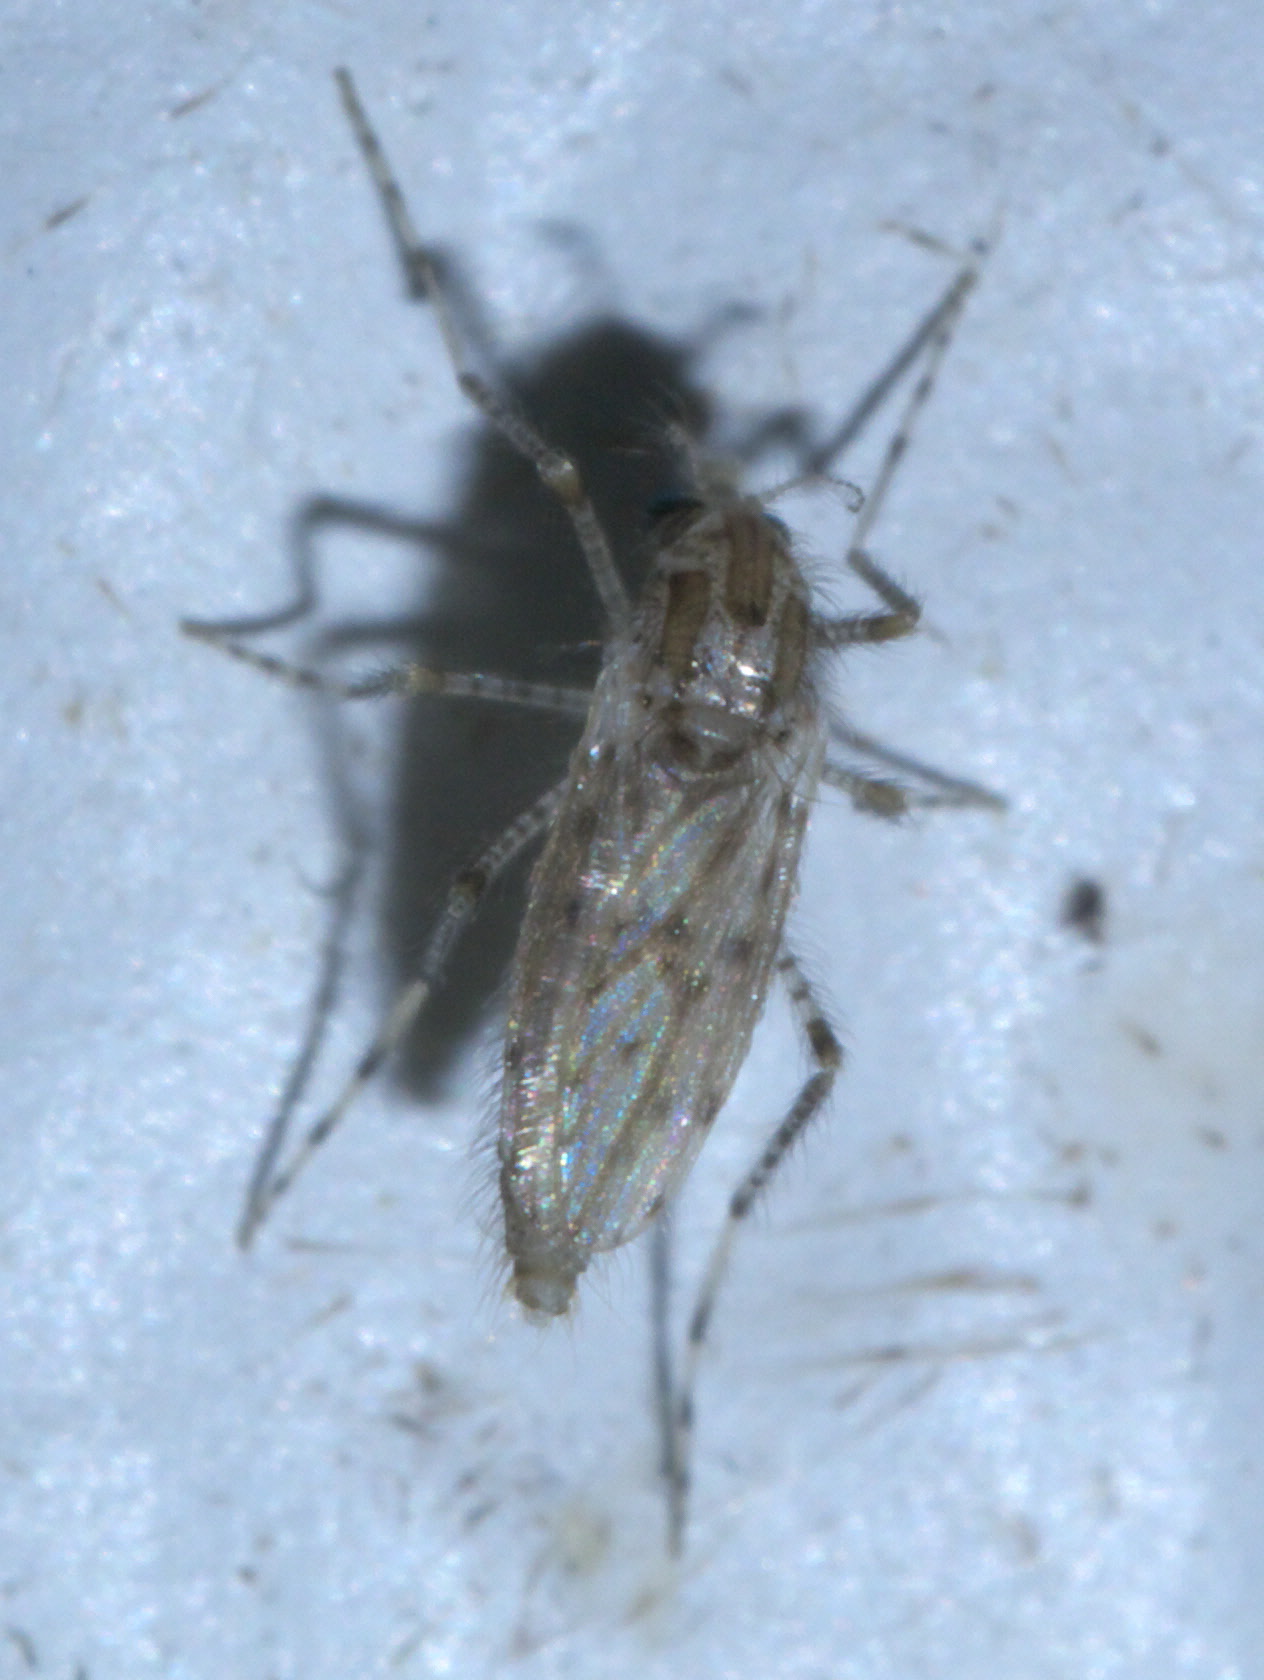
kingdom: Animalia
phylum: Arthropoda
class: Insecta
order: Diptera
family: Chaoboridae
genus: Chaoborus
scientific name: Chaoborus punctipennis
